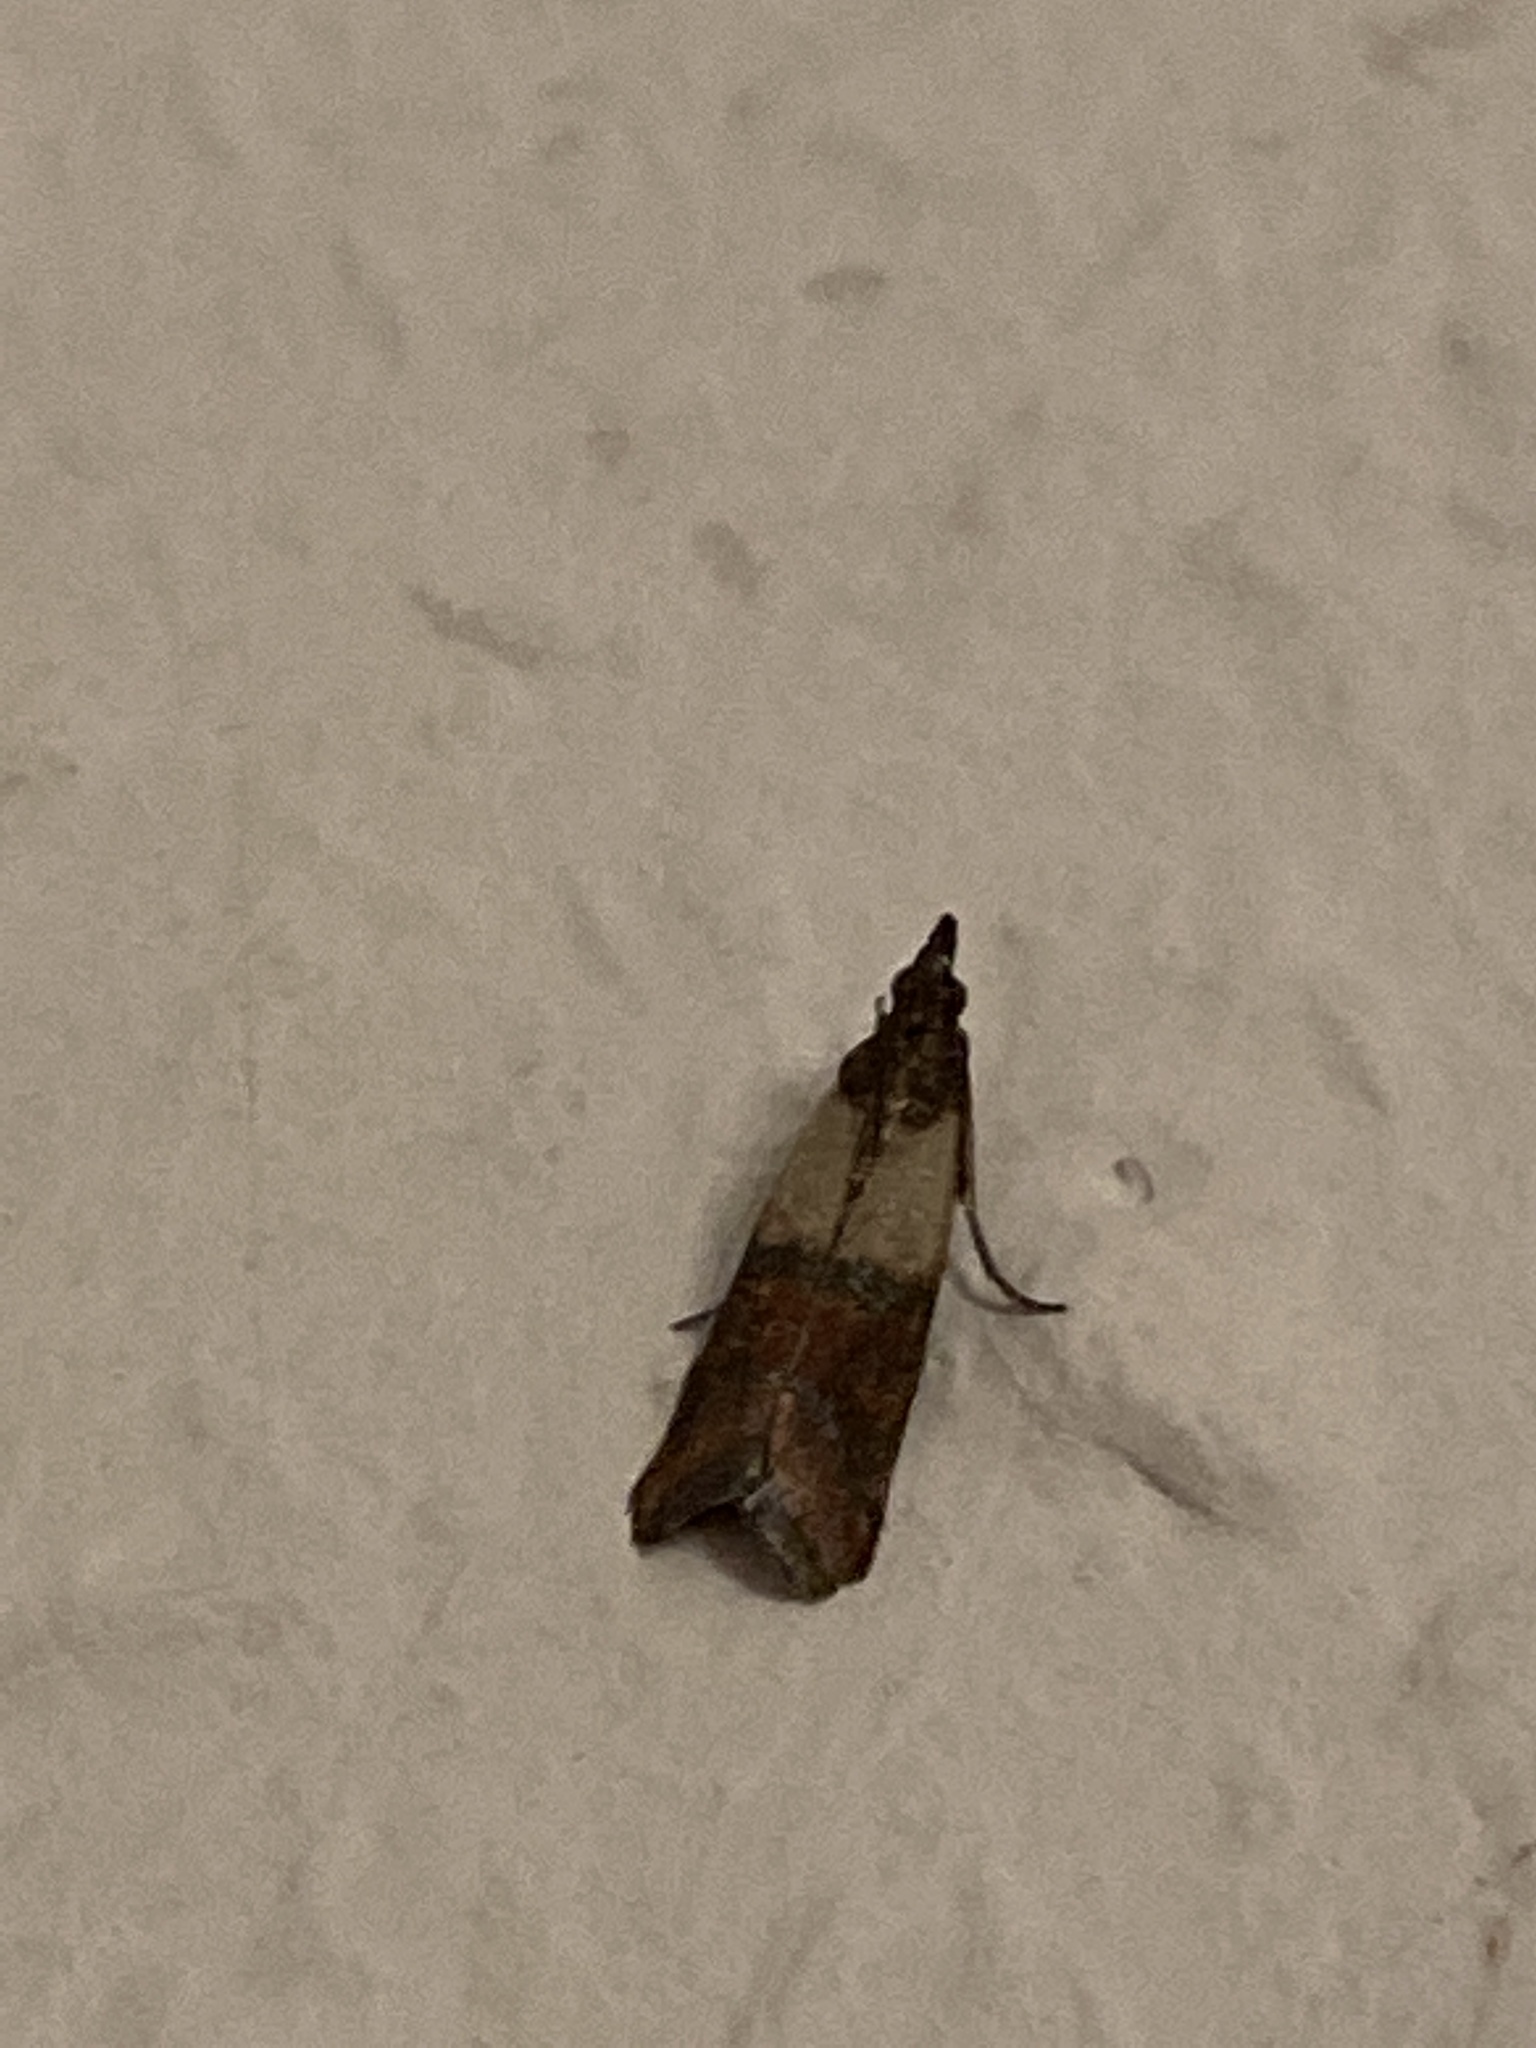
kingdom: Animalia
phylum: Arthropoda
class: Insecta
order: Lepidoptera
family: Pyralidae
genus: Plodia
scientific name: Plodia interpunctella
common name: Indian meal moth
